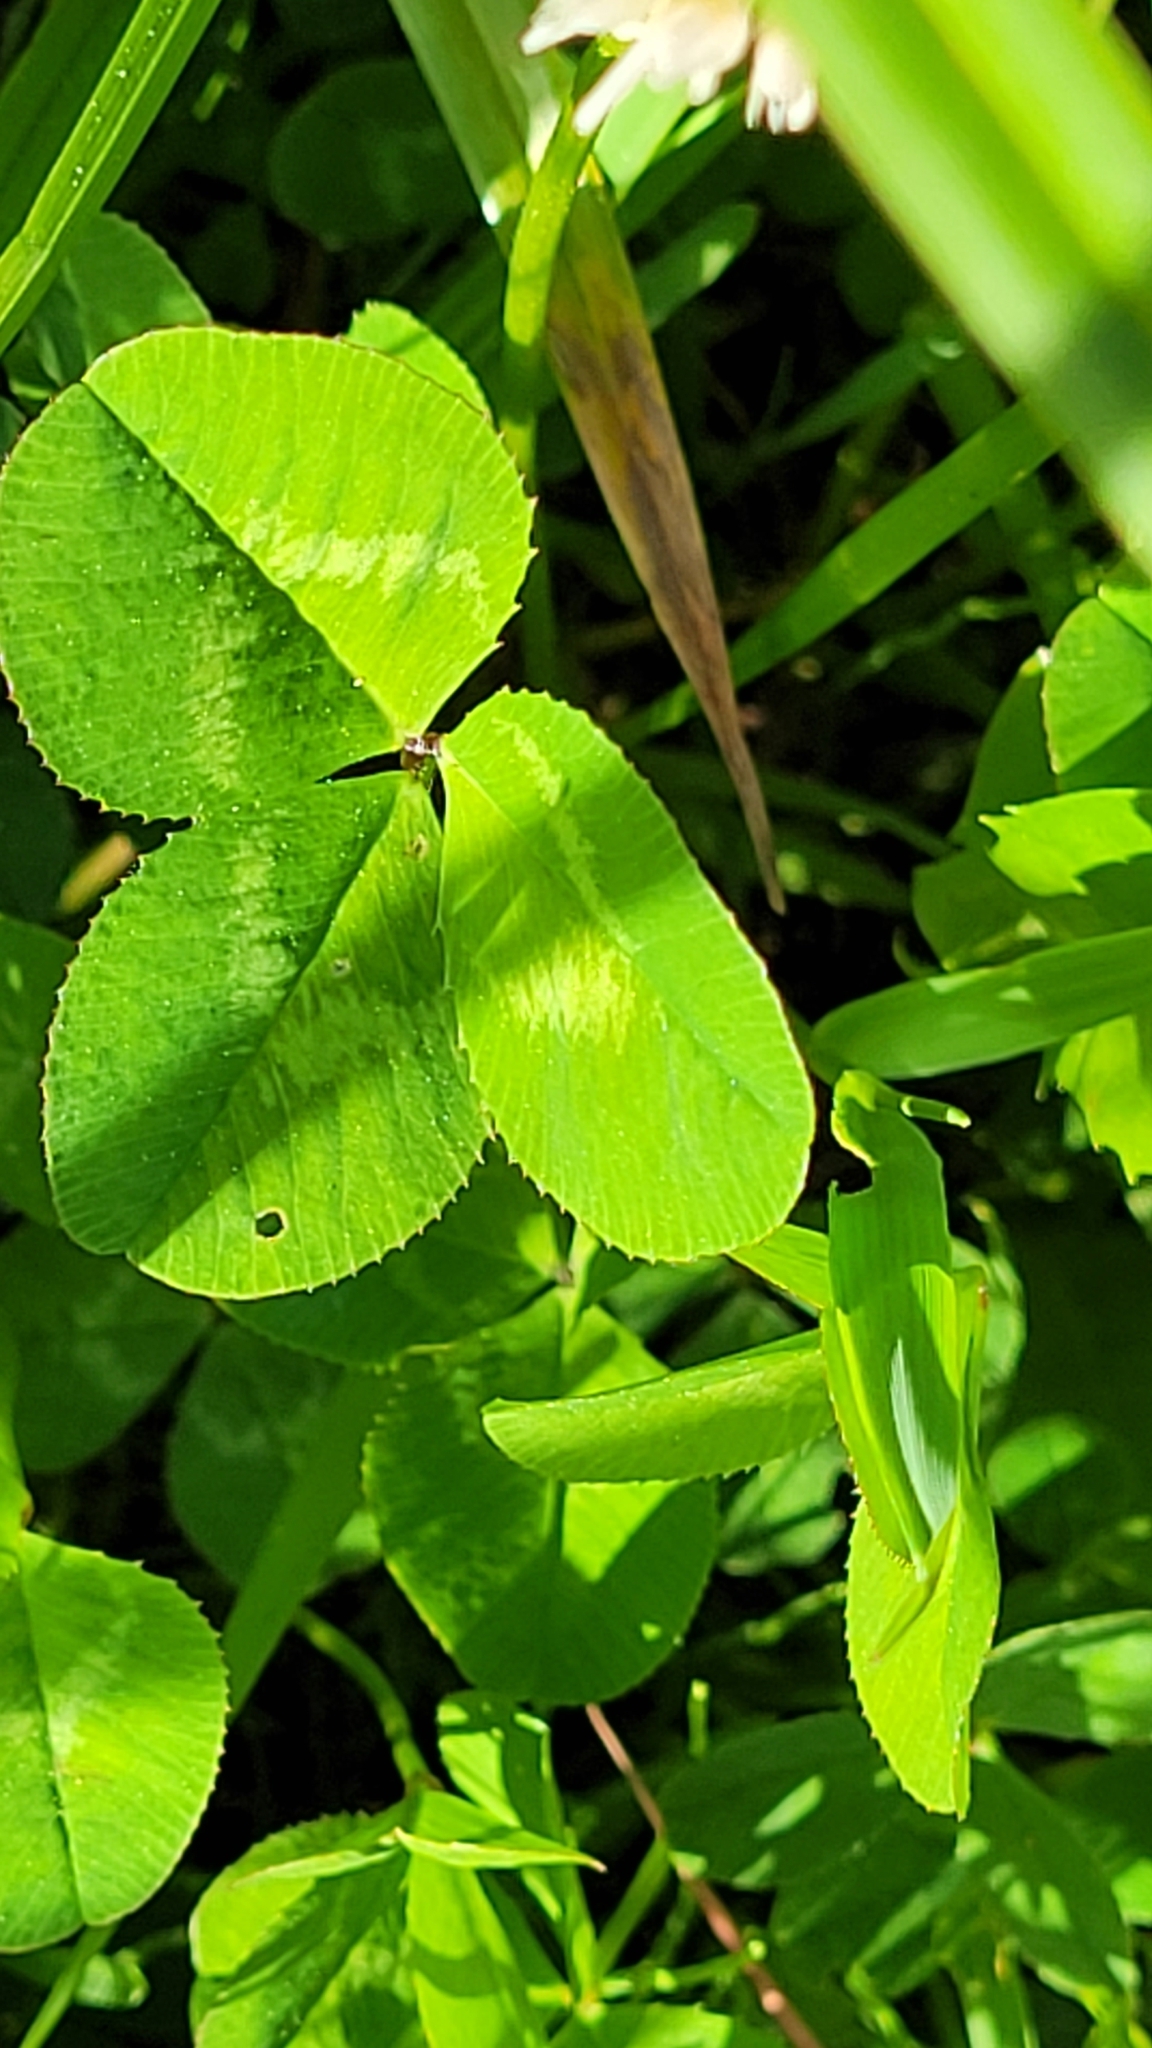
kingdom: Plantae
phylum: Tracheophyta
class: Magnoliopsida
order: Fabales
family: Fabaceae
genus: Trifolium
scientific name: Trifolium repens
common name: White clover
